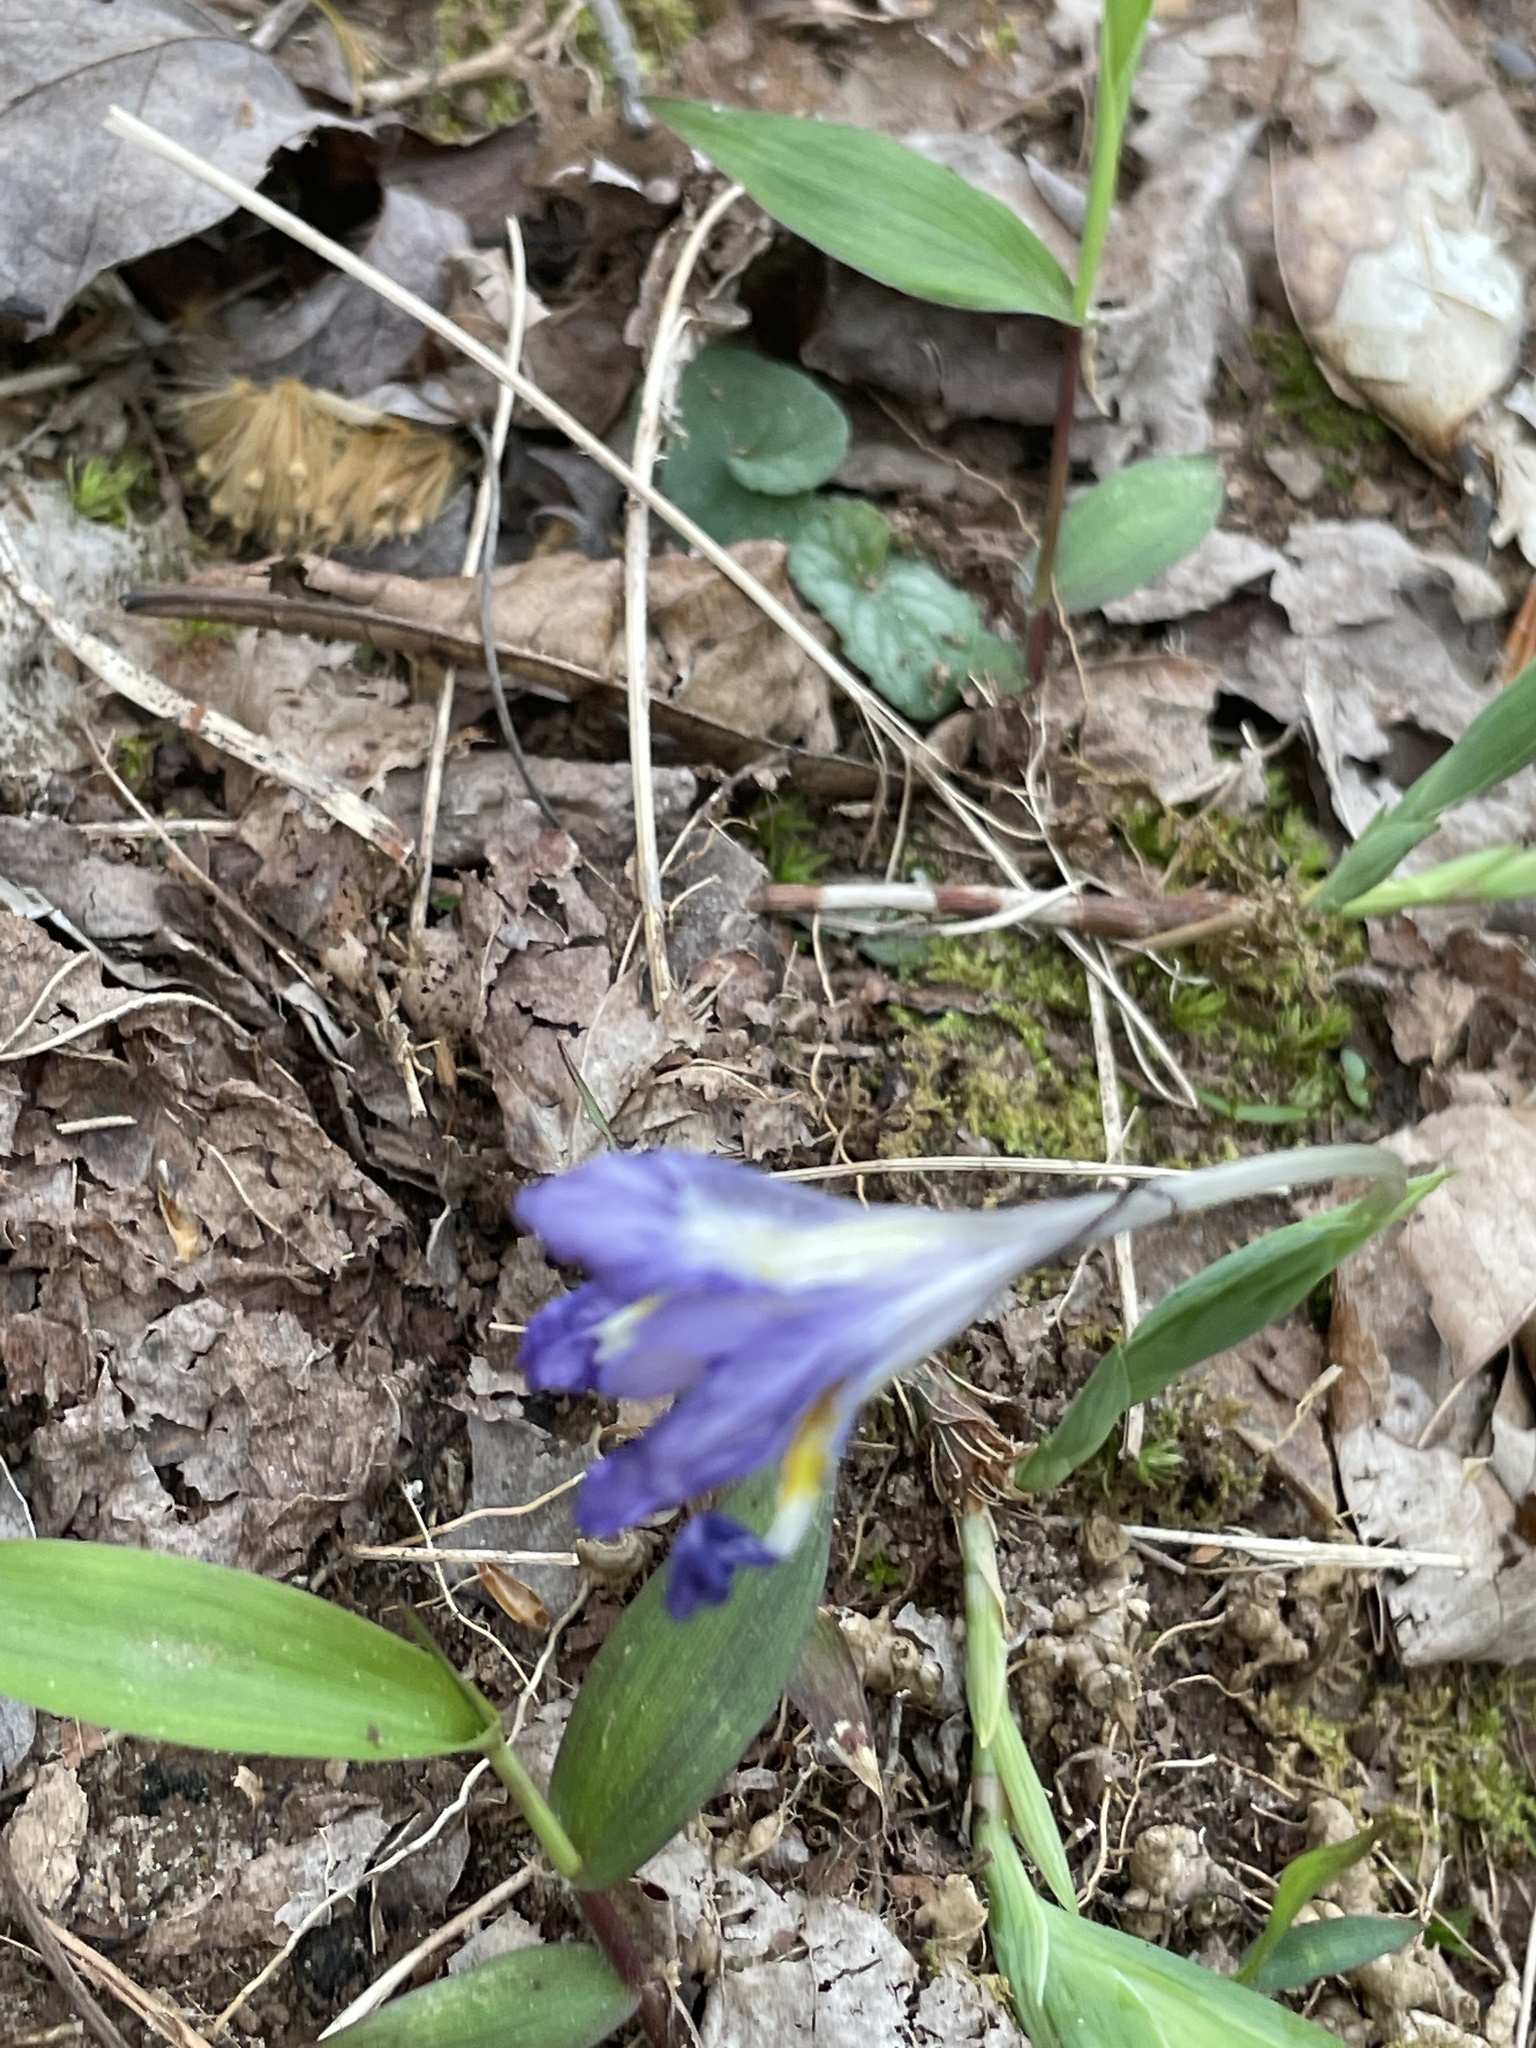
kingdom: Plantae
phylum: Tracheophyta
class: Liliopsida
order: Asparagales
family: Iridaceae
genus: Iris
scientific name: Iris cristata
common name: Crested iris
